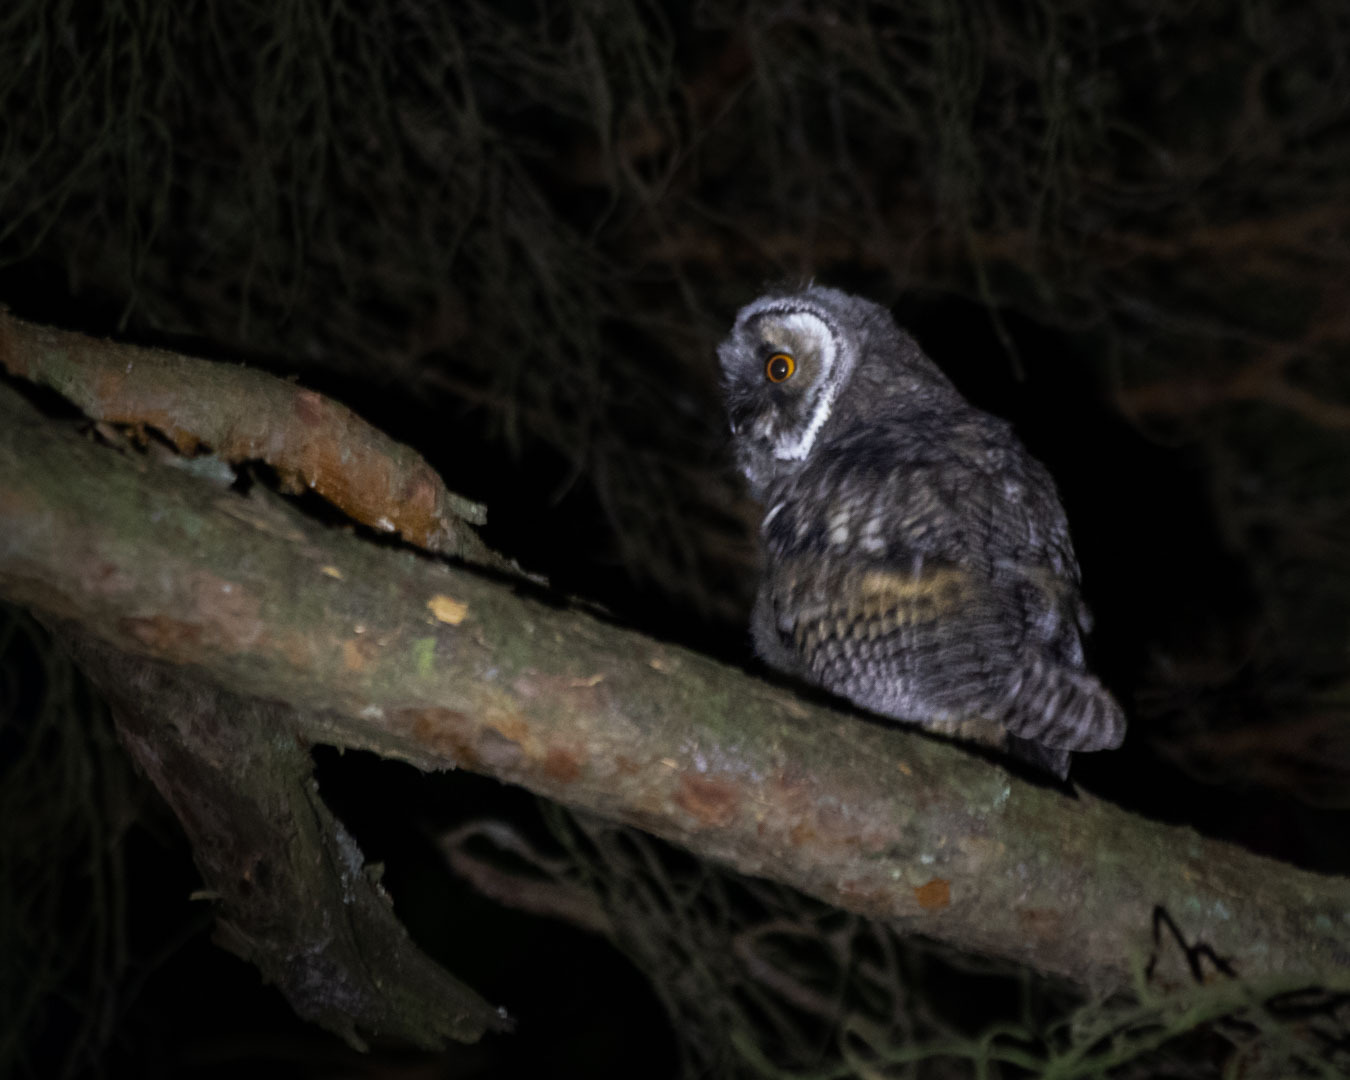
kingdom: Animalia
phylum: Chordata
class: Aves
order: Strigiformes
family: Strigidae
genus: Asio
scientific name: Asio otus
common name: Long-eared owl
